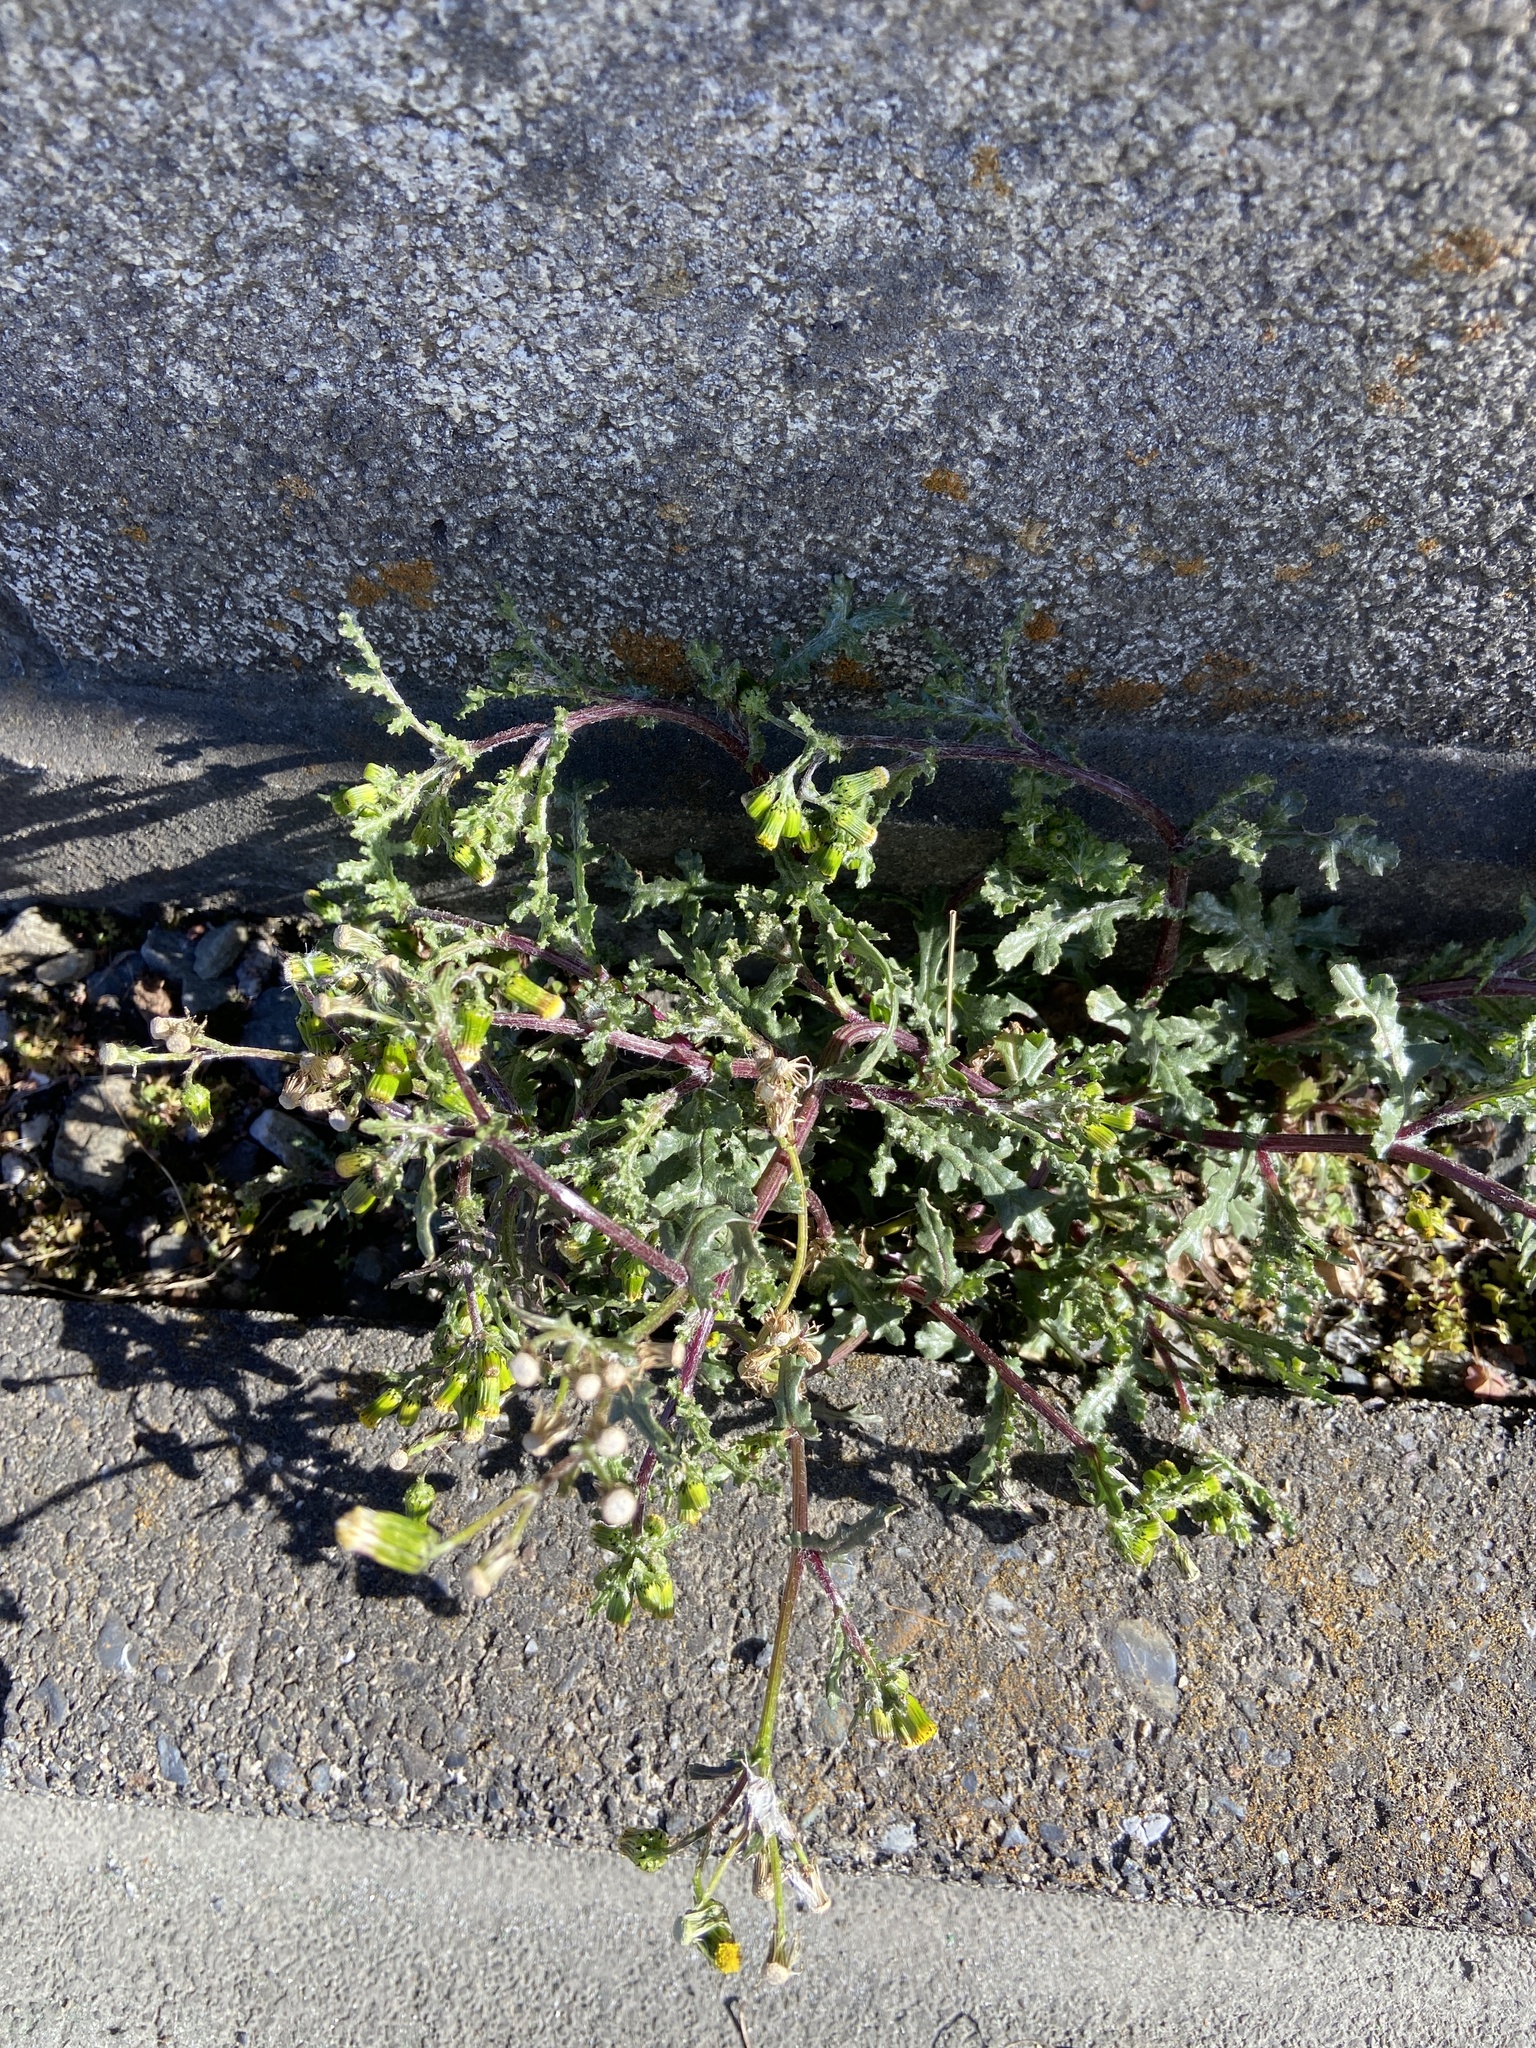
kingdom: Plantae
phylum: Tracheophyta
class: Magnoliopsida
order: Asterales
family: Asteraceae
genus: Senecio
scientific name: Senecio vulgaris
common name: Old-man-in-the-spring
